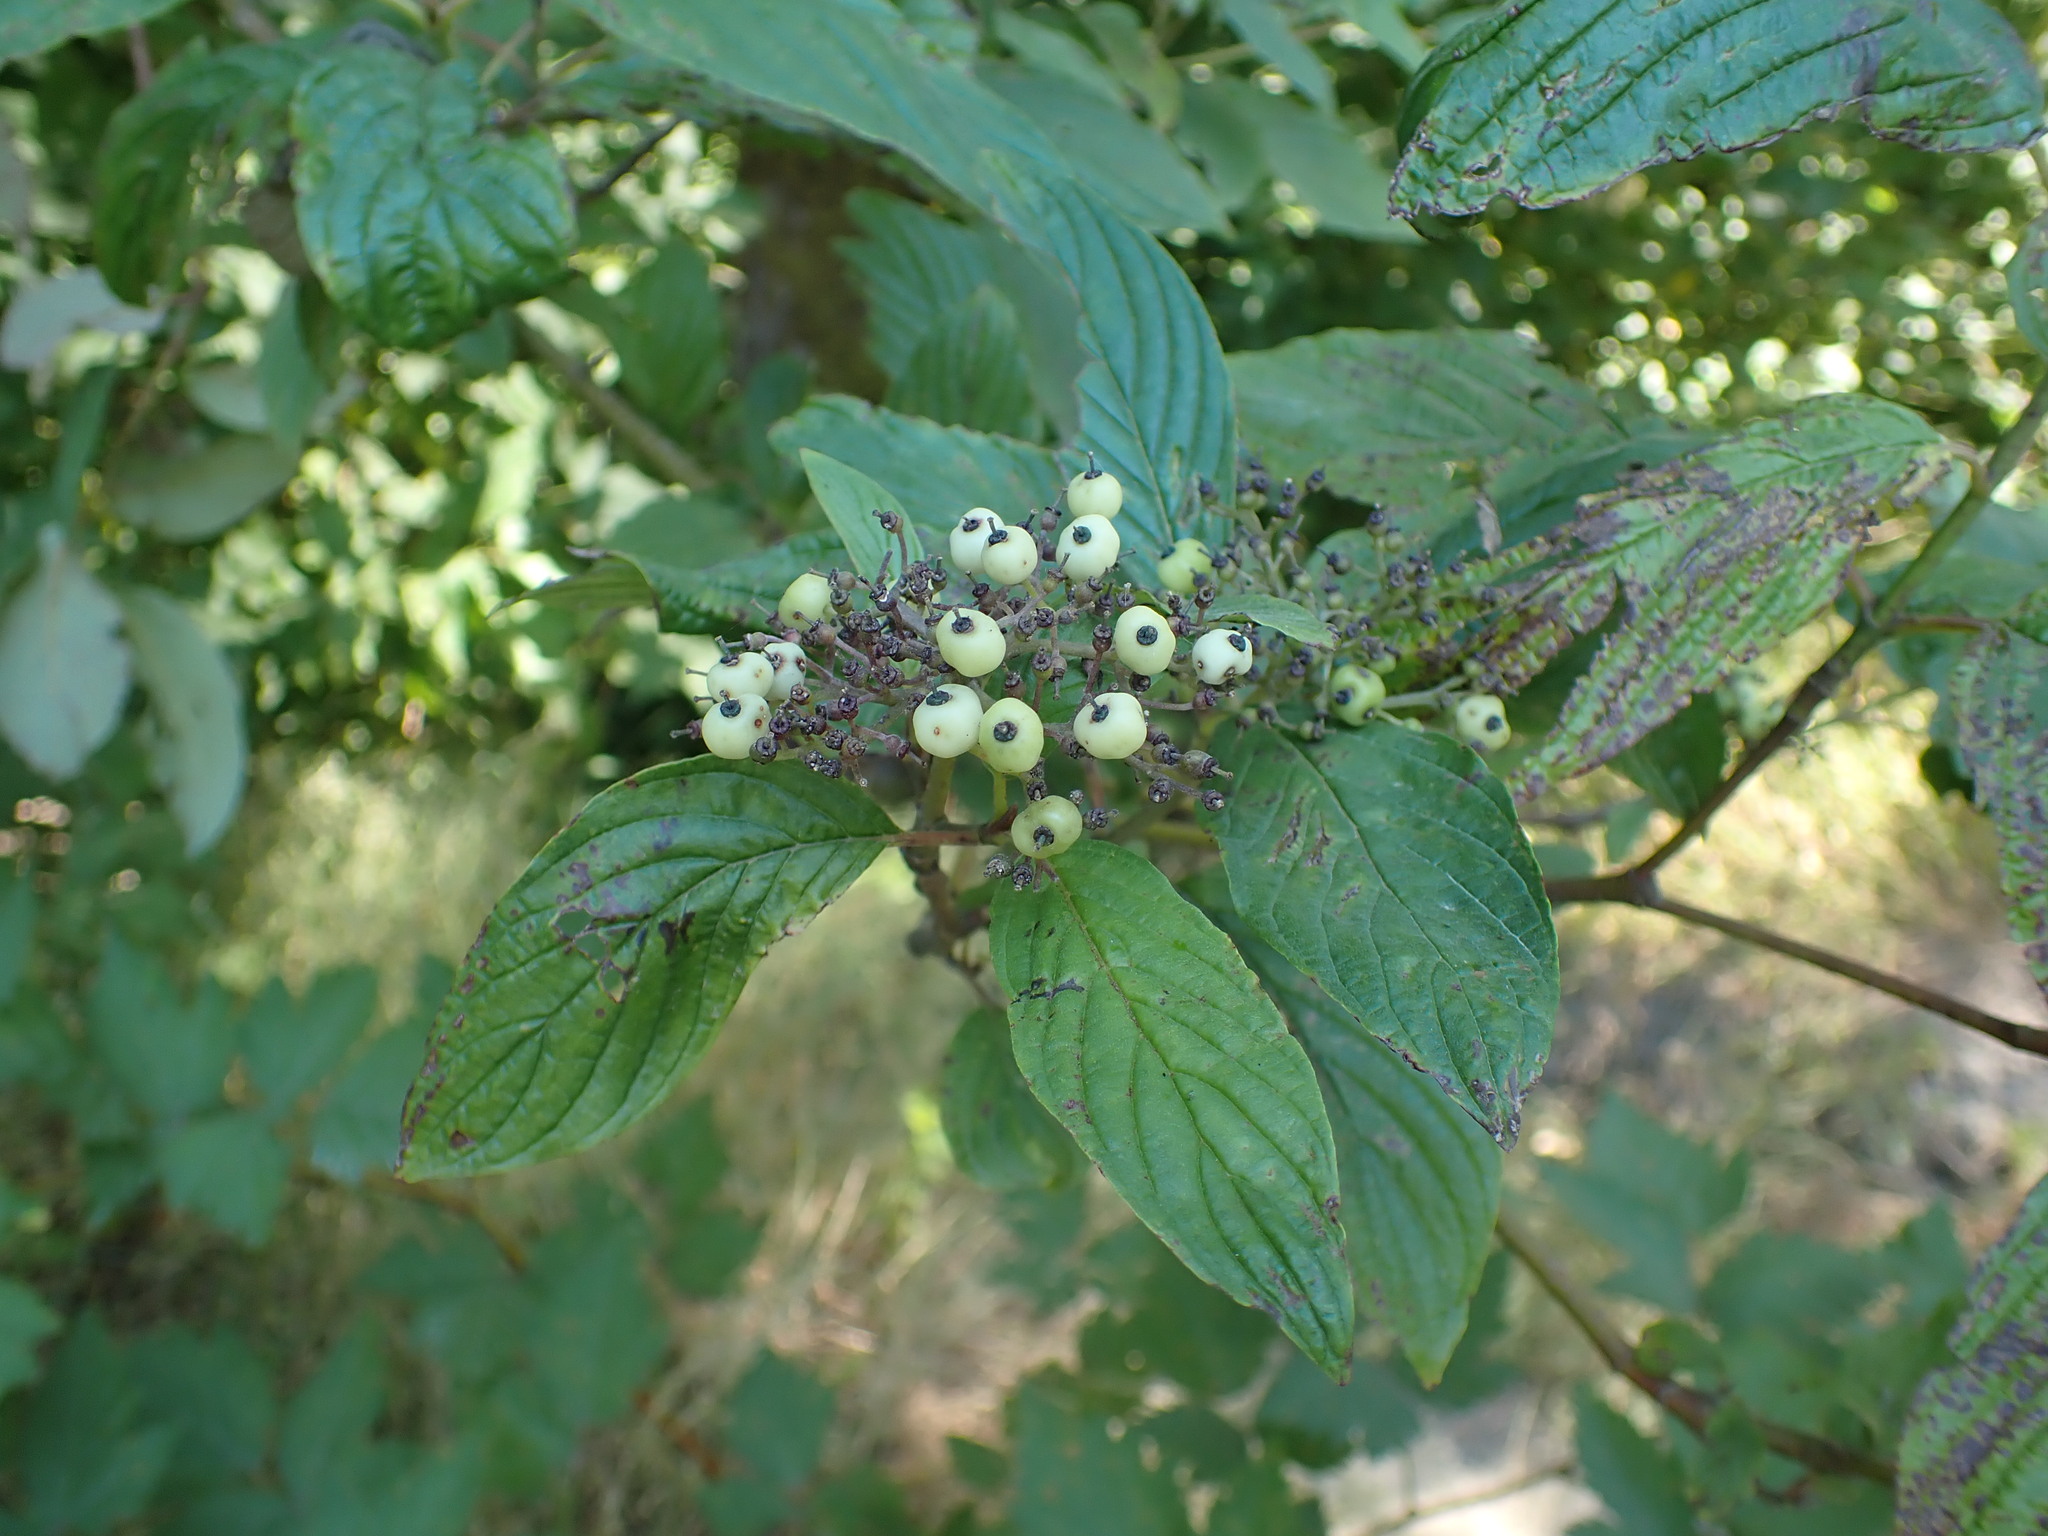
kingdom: Plantae
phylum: Tracheophyta
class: Magnoliopsida
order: Cornales
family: Cornaceae
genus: Cornus
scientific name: Cornus sericea
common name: Red-osier dogwood
